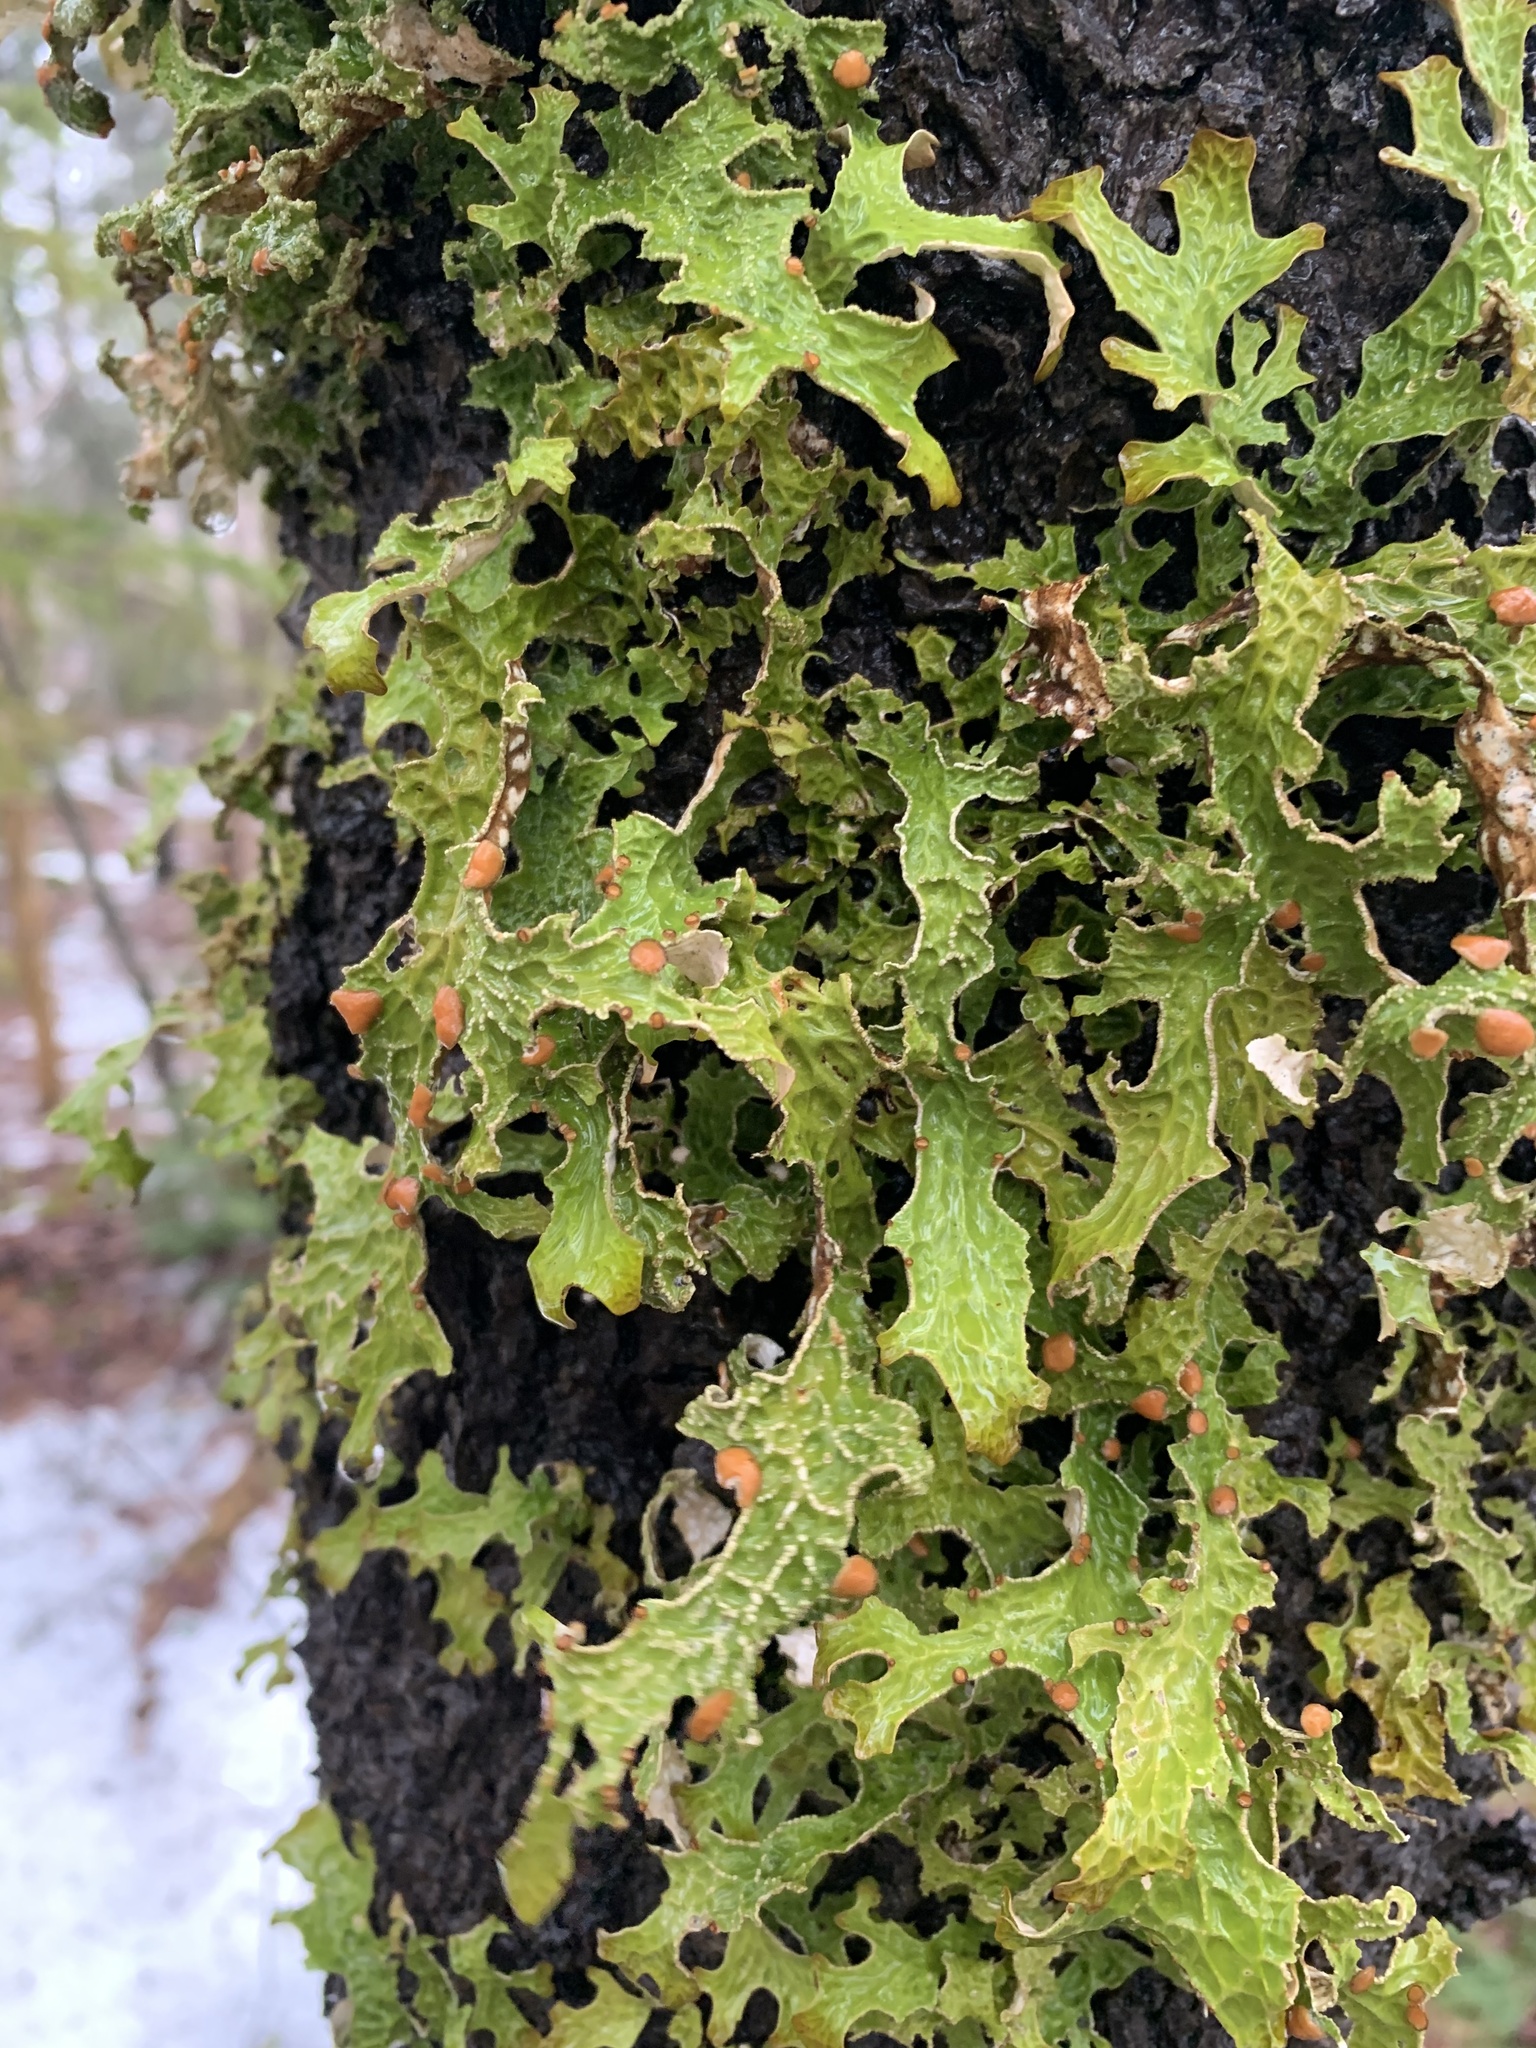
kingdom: Fungi
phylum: Ascomycota
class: Lecanoromycetes
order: Peltigerales
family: Lobariaceae
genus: Lobaria
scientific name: Lobaria pulmonaria
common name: Lungwort
